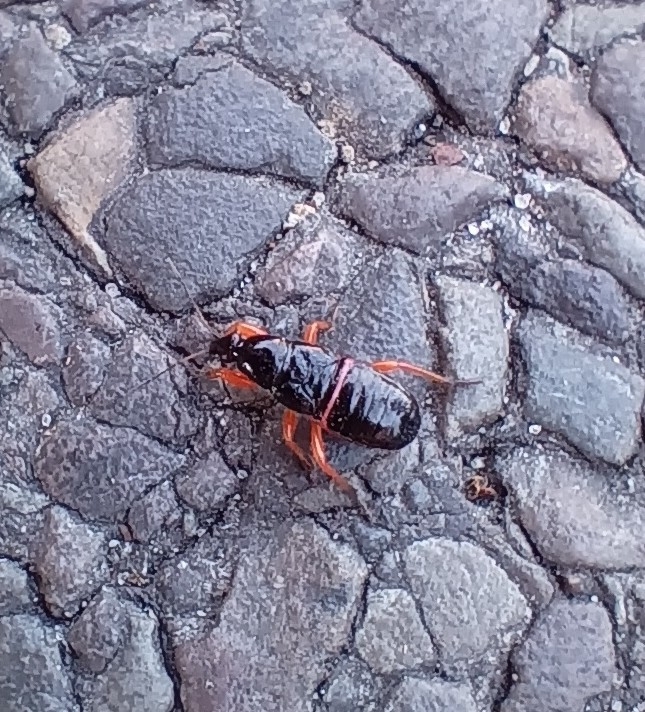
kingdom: Animalia
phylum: Arthropoda
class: Insecta
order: Hemiptera
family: Nabidae
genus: Prostemma
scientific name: Prostemma guttula
